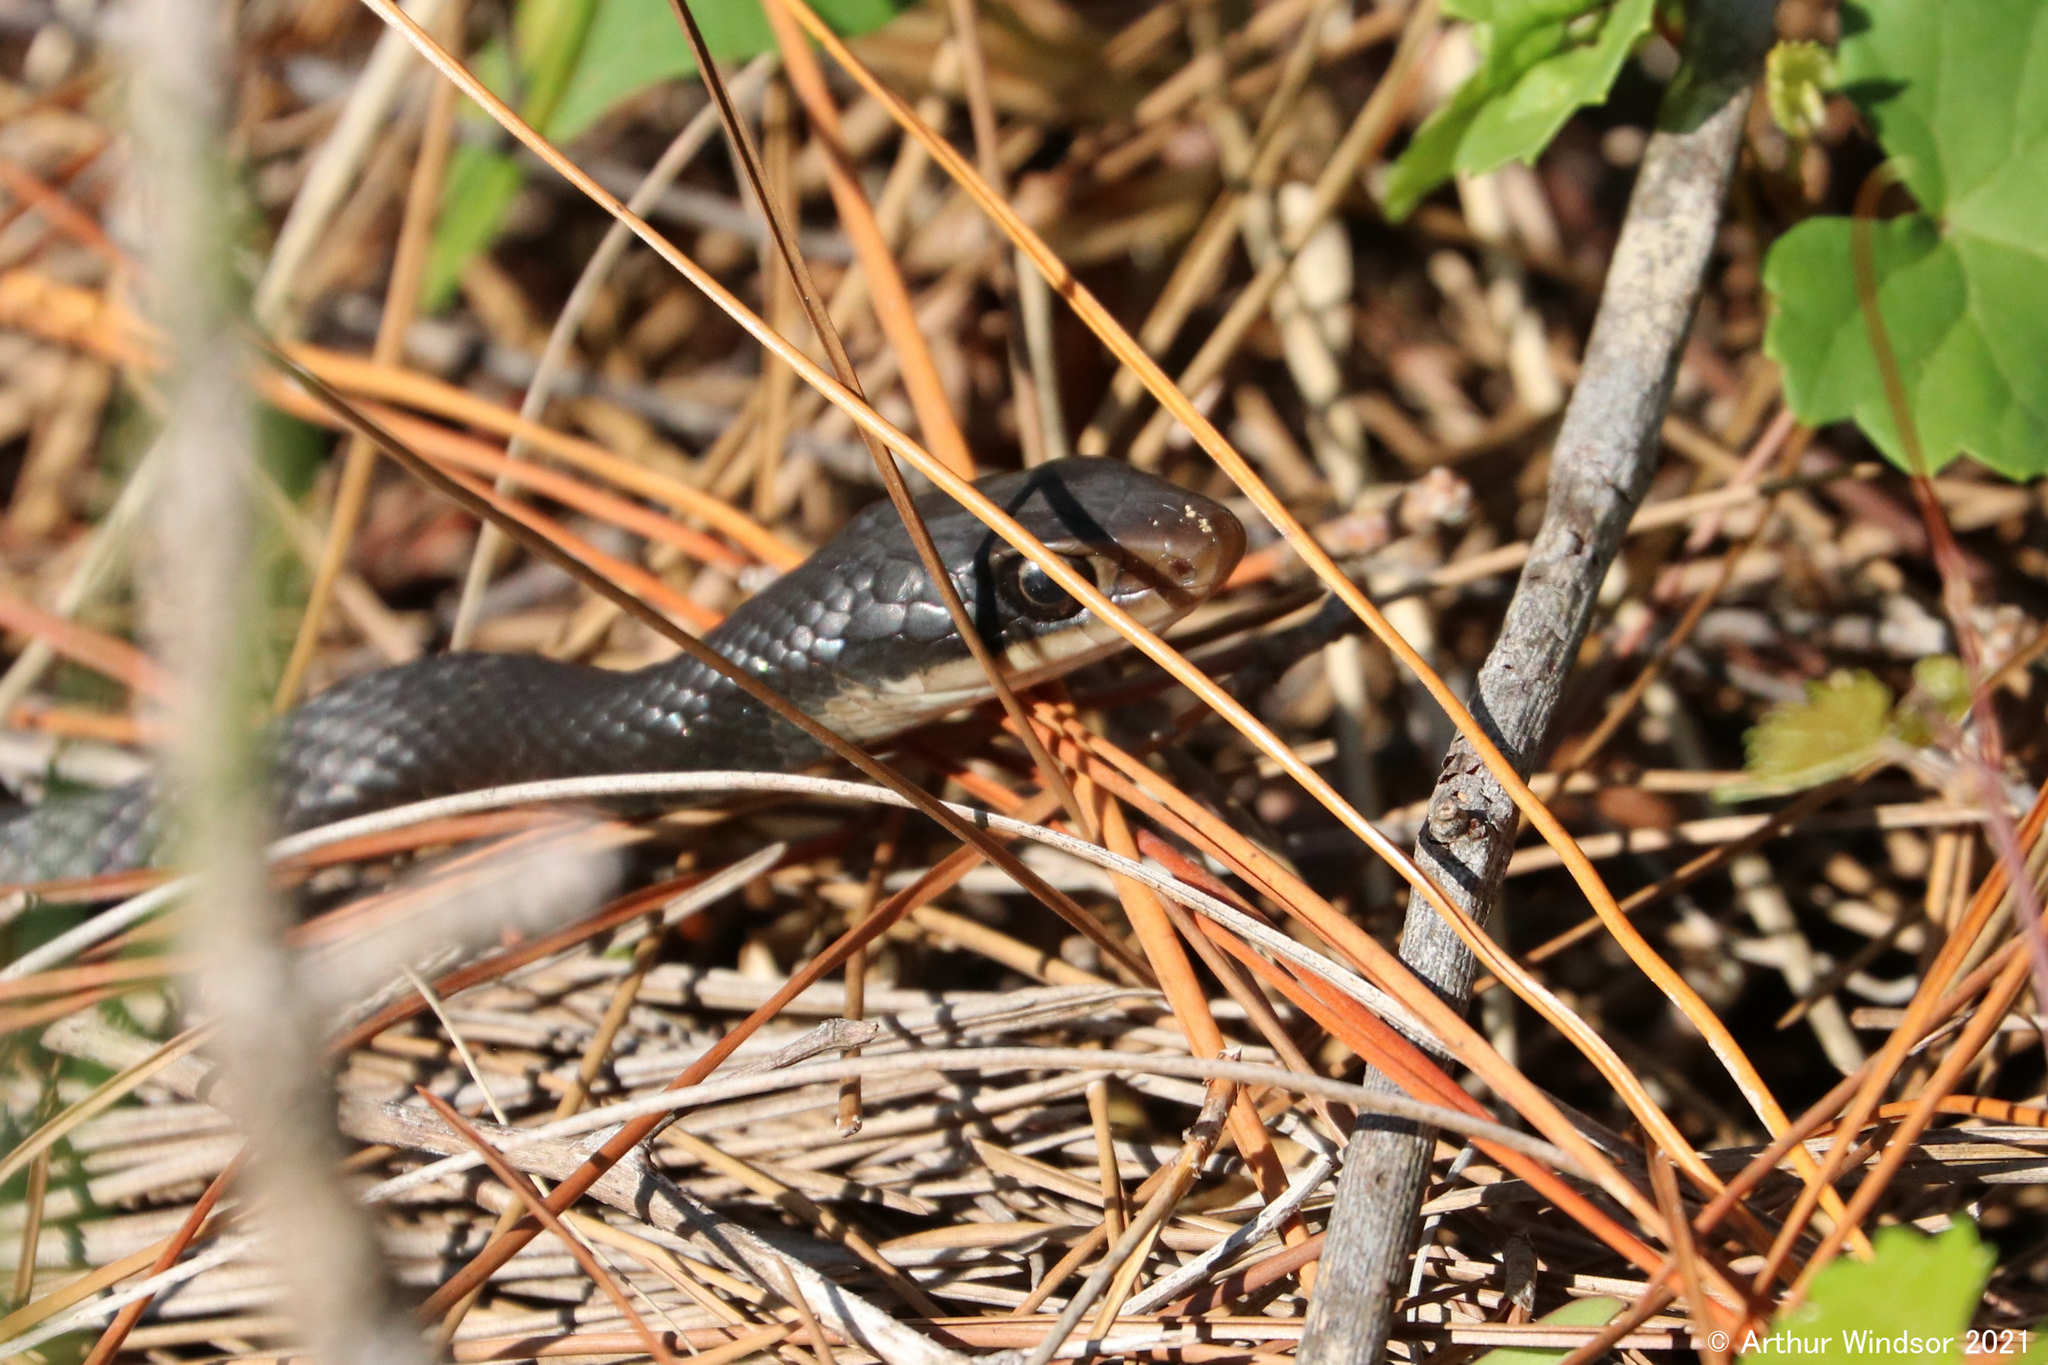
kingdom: Animalia
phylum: Chordata
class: Squamata
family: Colubridae
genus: Coluber
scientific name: Coluber constrictor
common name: Eastern racer
